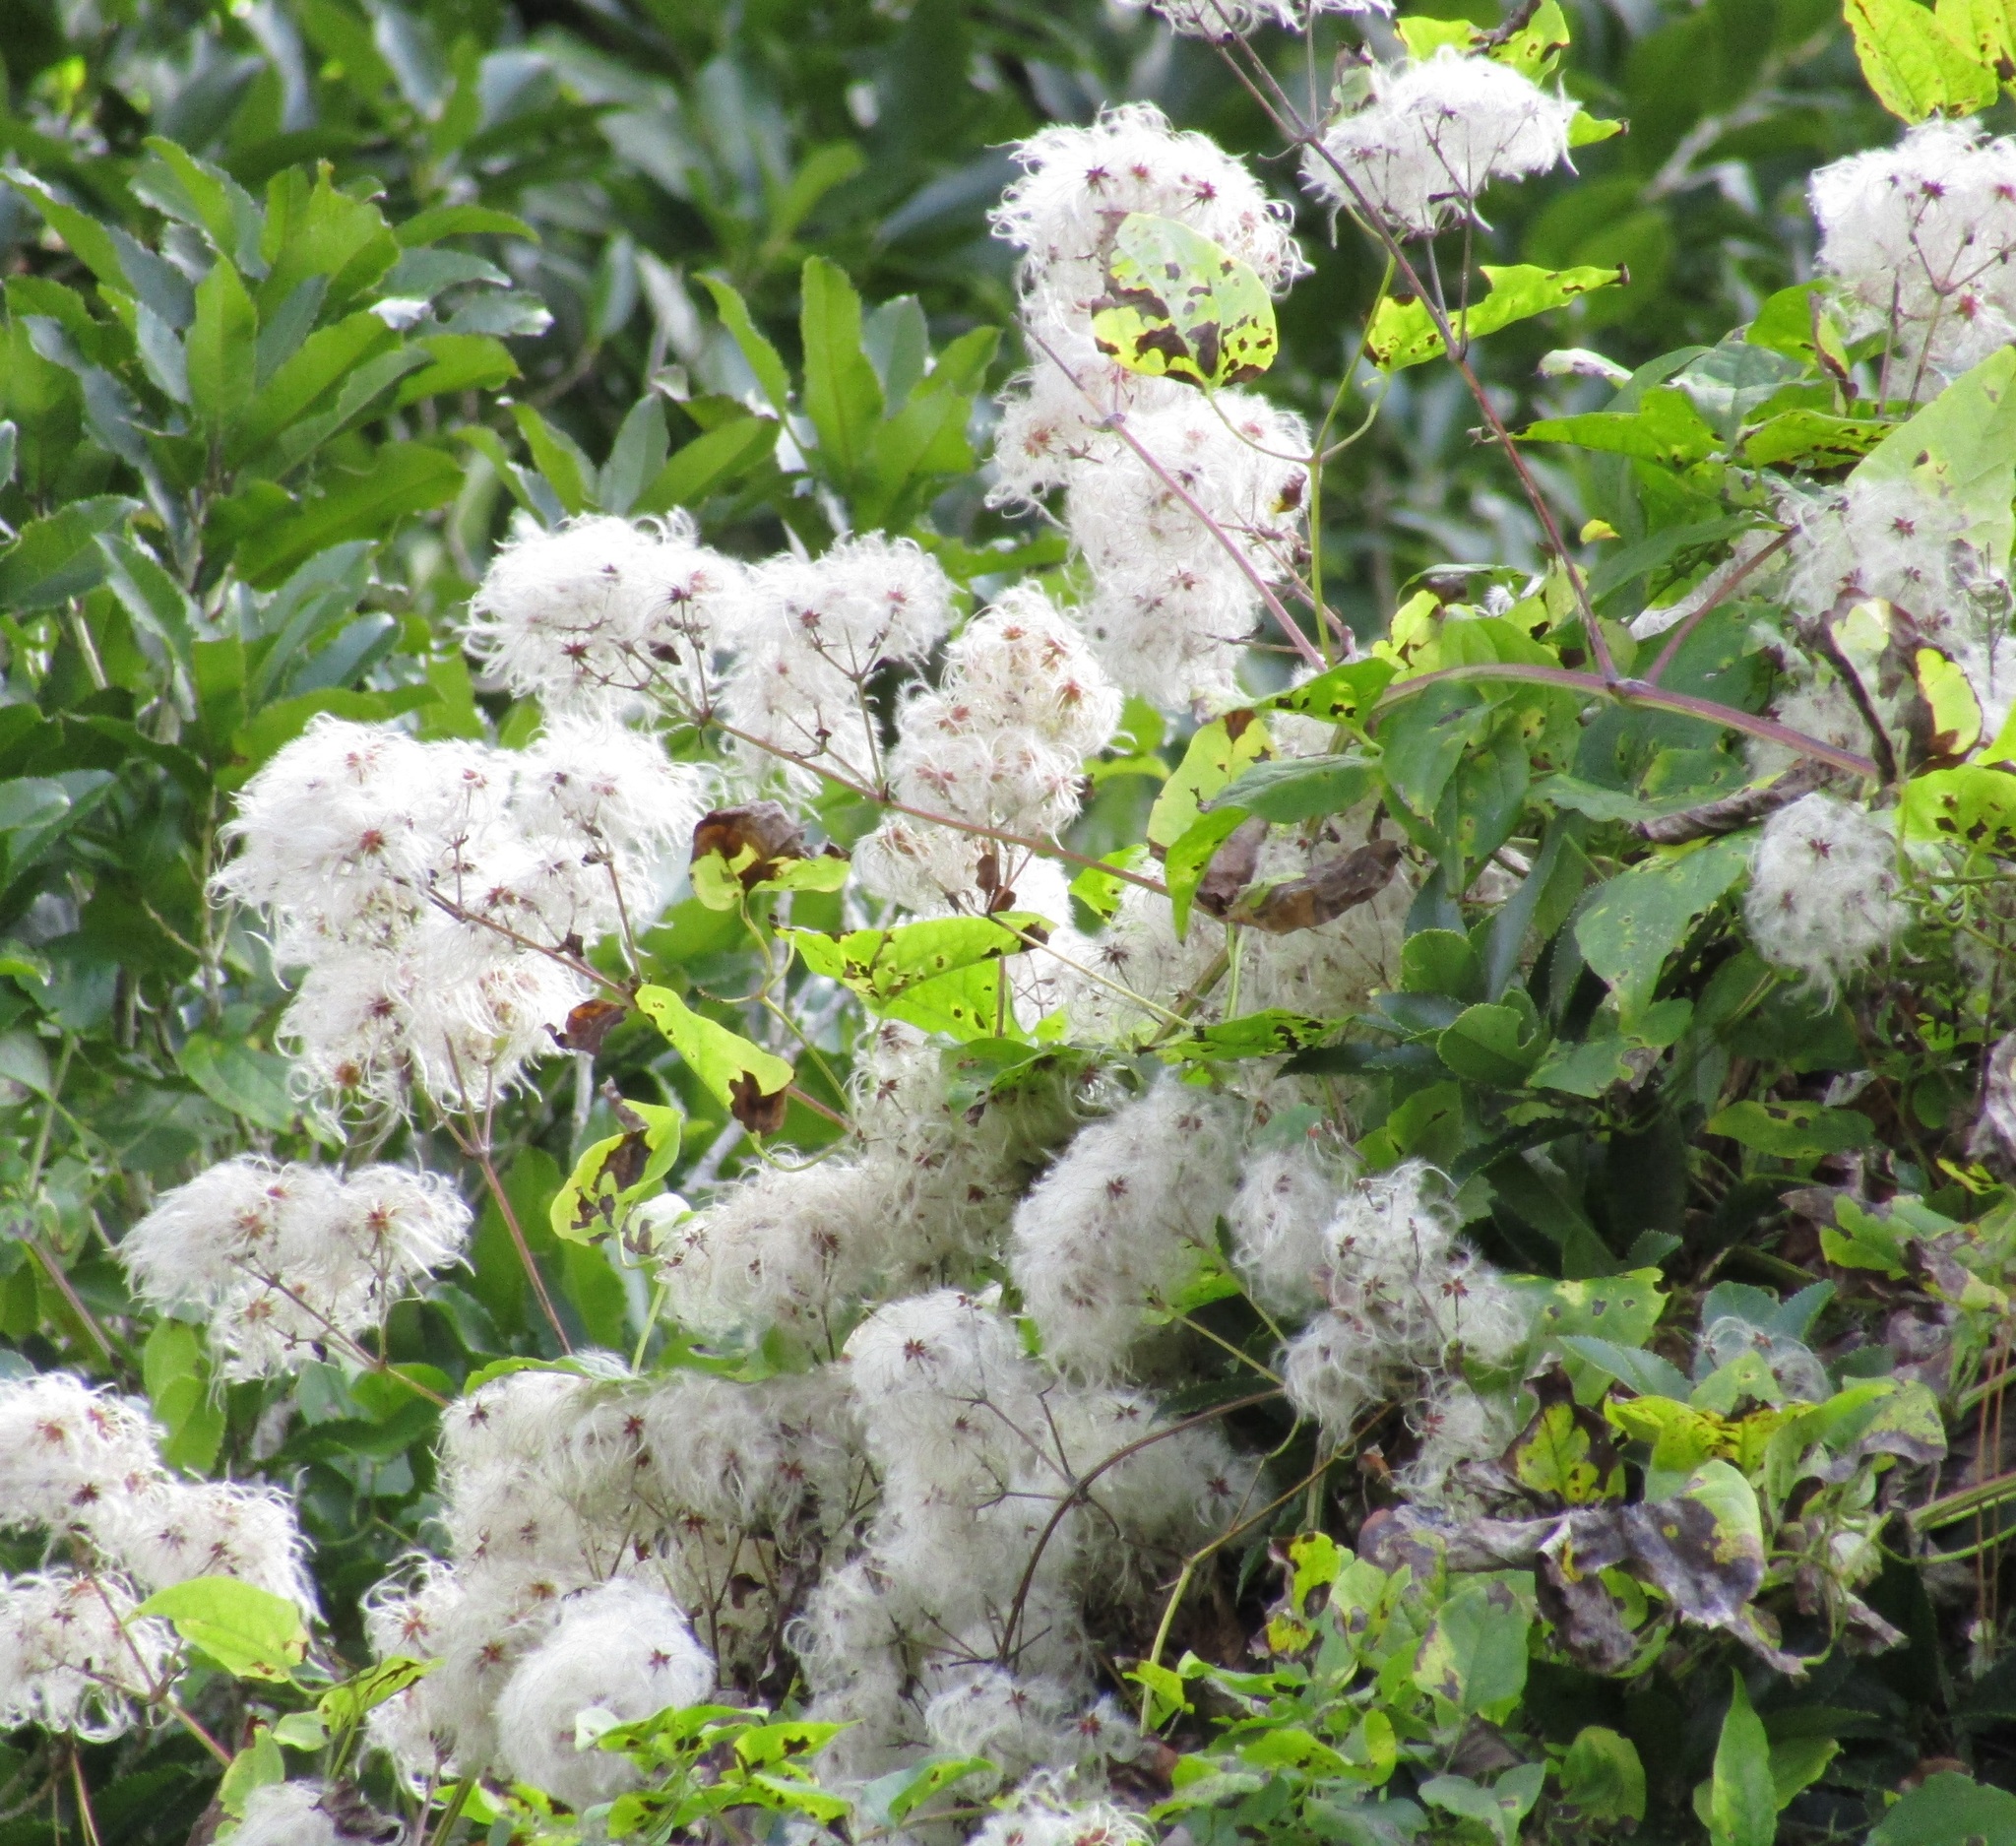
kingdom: Plantae
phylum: Tracheophyta
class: Magnoliopsida
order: Ranunculales
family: Ranunculaceae
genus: Clematis
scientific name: Clematis vitalba
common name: Evergreen clematis
